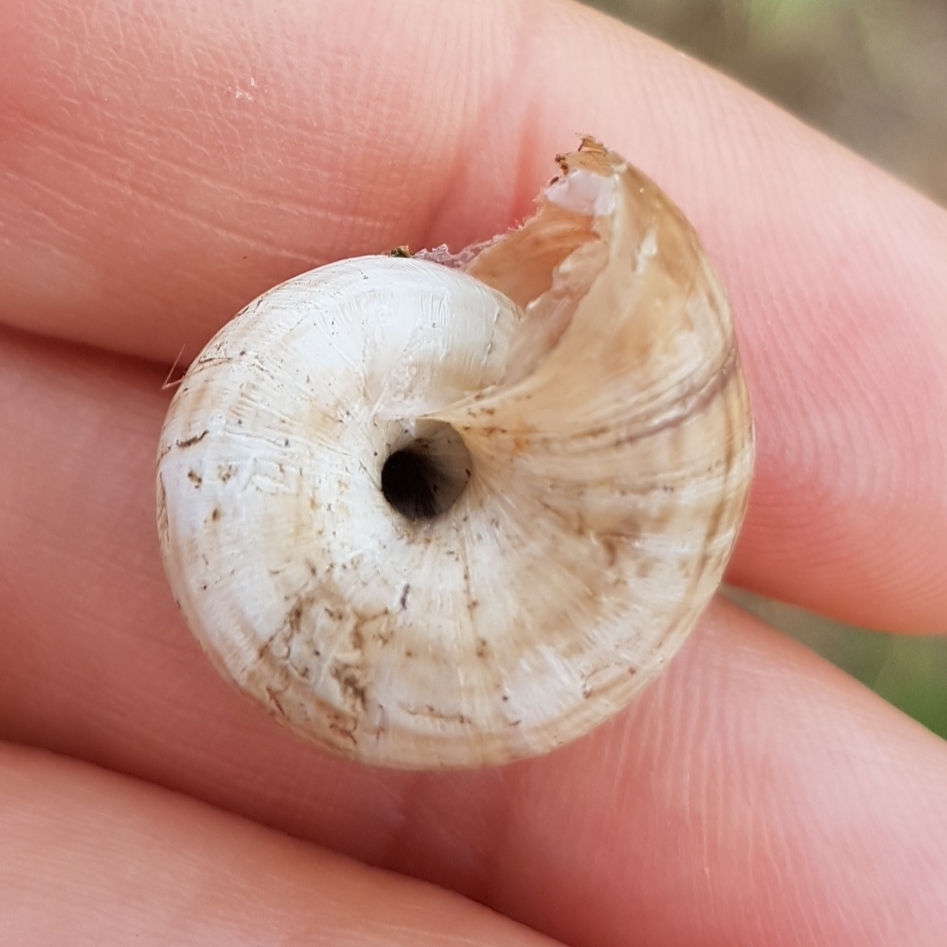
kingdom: Animalia
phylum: Mollusca
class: Gastropoda
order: Stylommatophora
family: Geomitridae
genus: Cernuella
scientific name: Cernuella virgata
